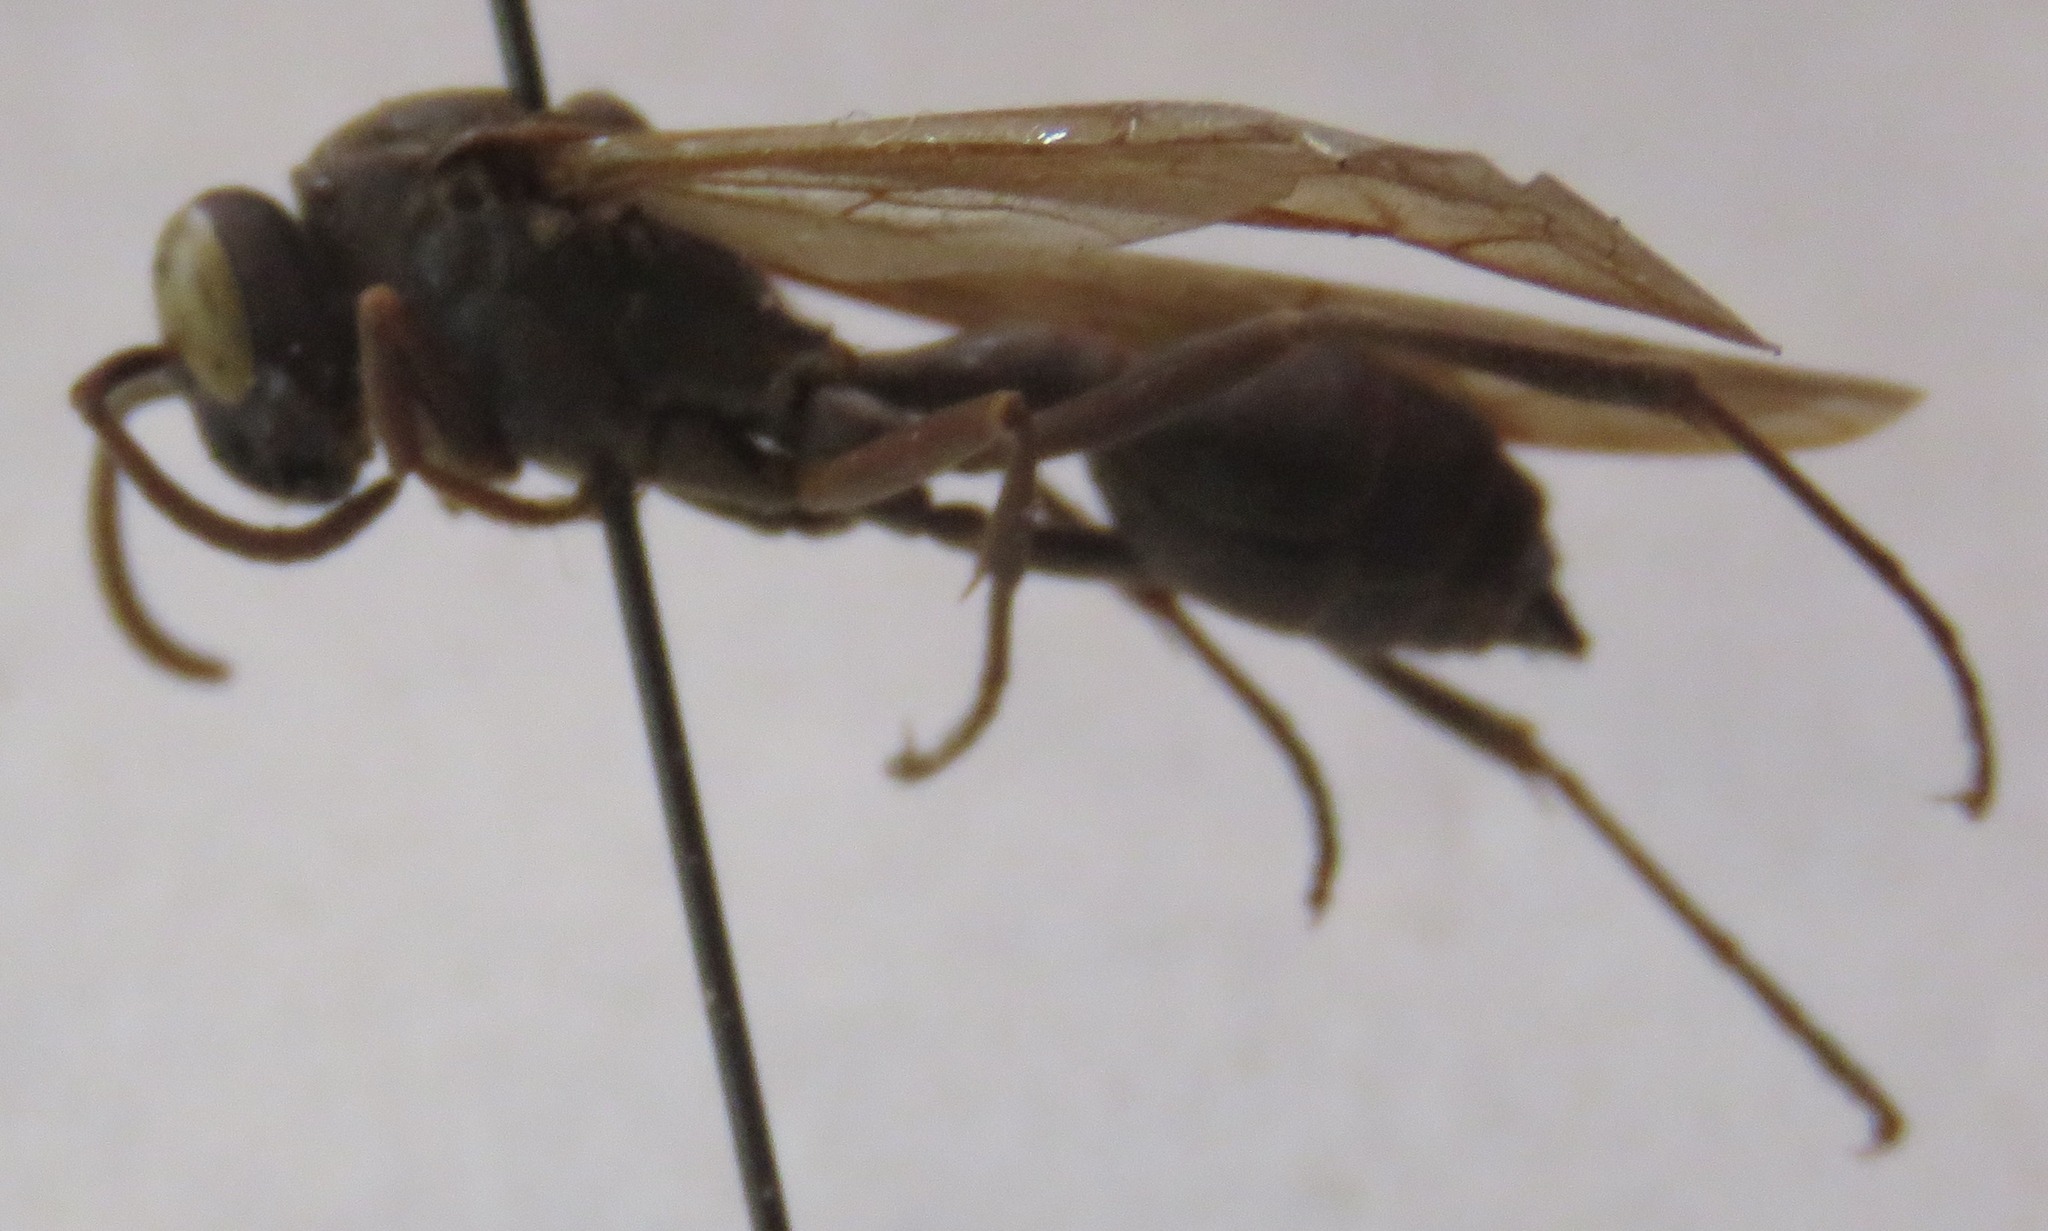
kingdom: Animalia
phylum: Arthropoda
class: Insecta
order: Hymenoptera
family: Vespidae
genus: Agelaia
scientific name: Agelaia panamensis
